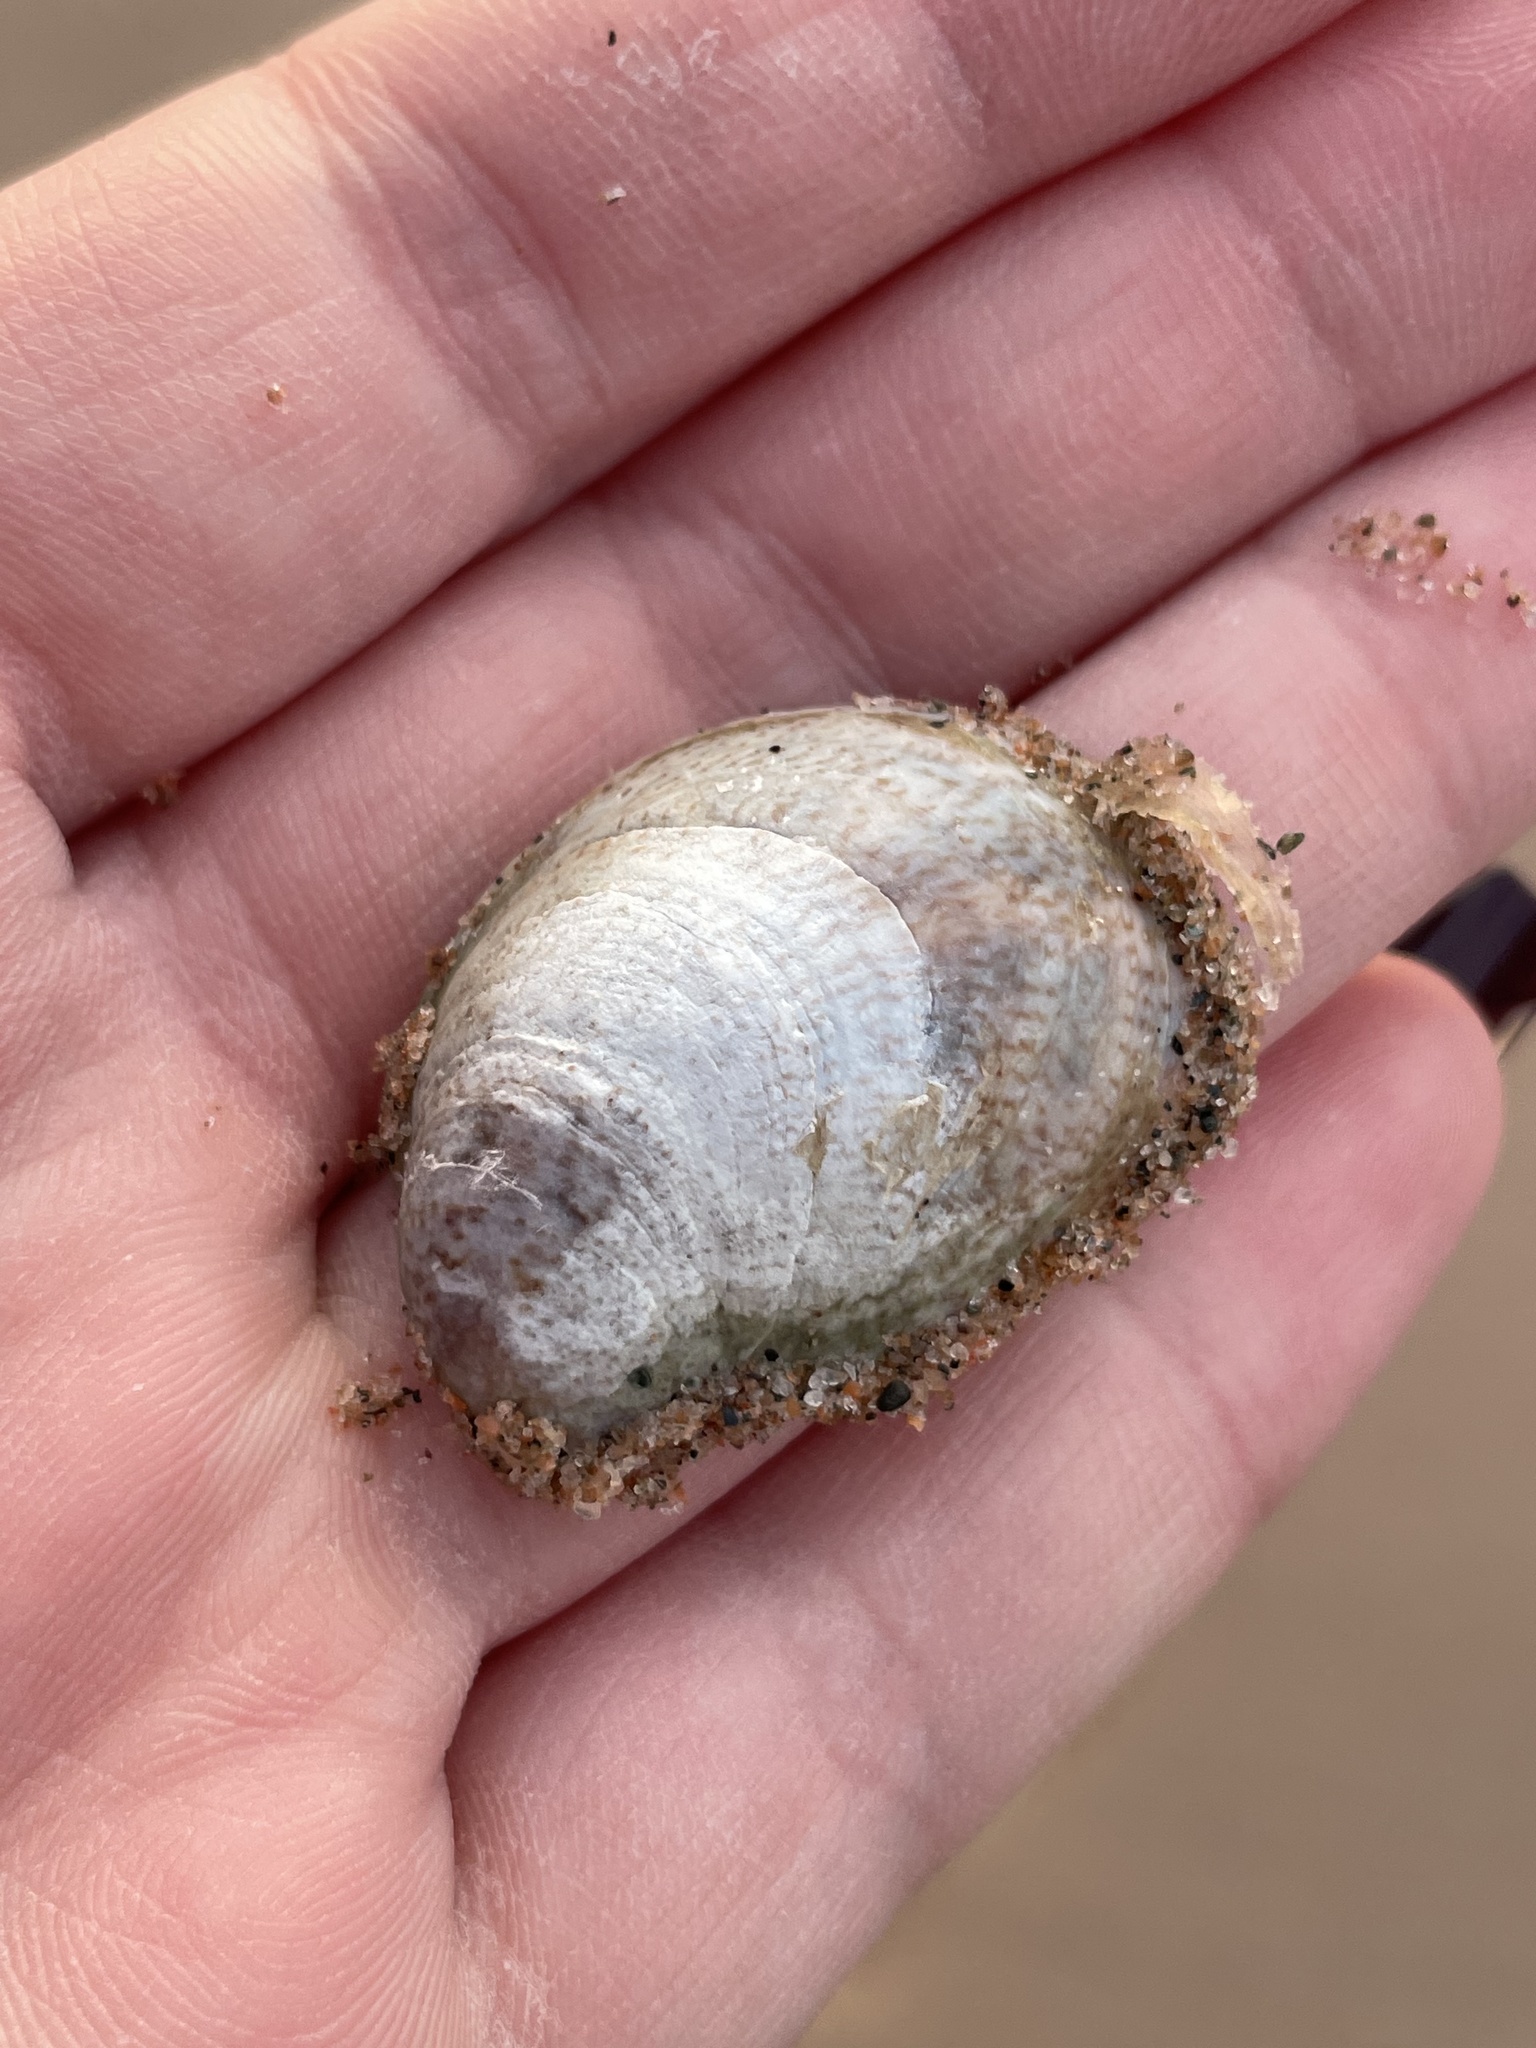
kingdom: Animalia
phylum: Mollusca
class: Gastropoda
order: Littorinimorpha
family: Calyptraeidae
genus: Crepidula
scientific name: Crepidula fornicata
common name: Slipper limpet
